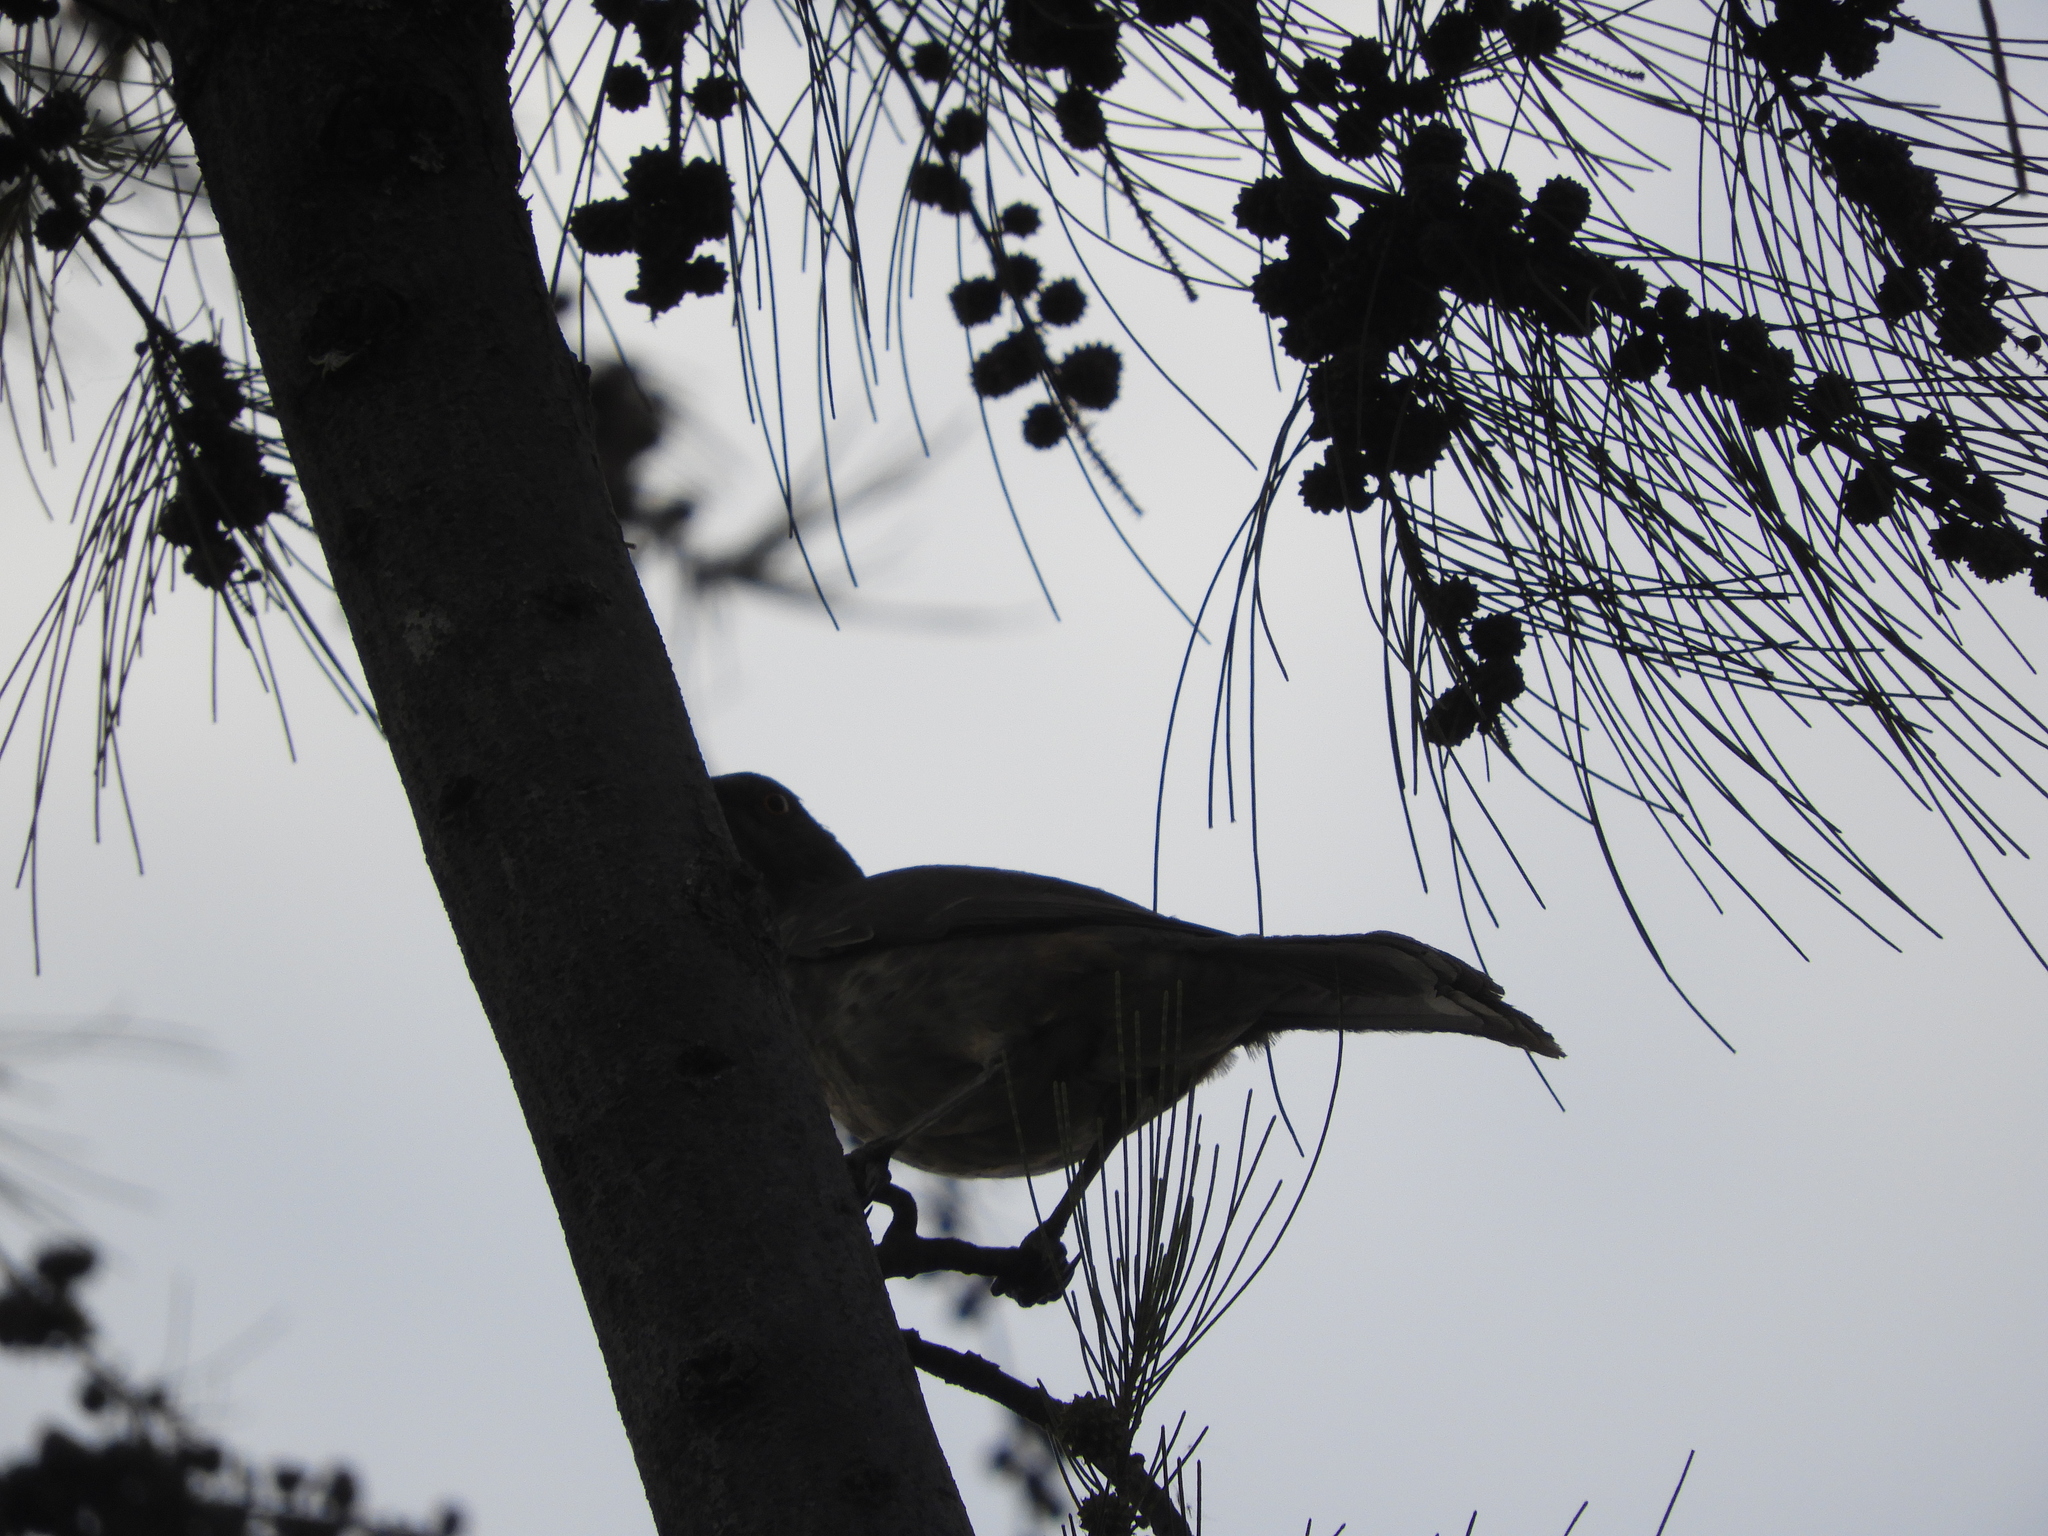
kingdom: Animalia
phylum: Chordata
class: Aves
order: Passeriformes
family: Mimidae
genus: Toxostoma
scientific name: Toxostoma curvirostre
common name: Curve-billed thrasher
